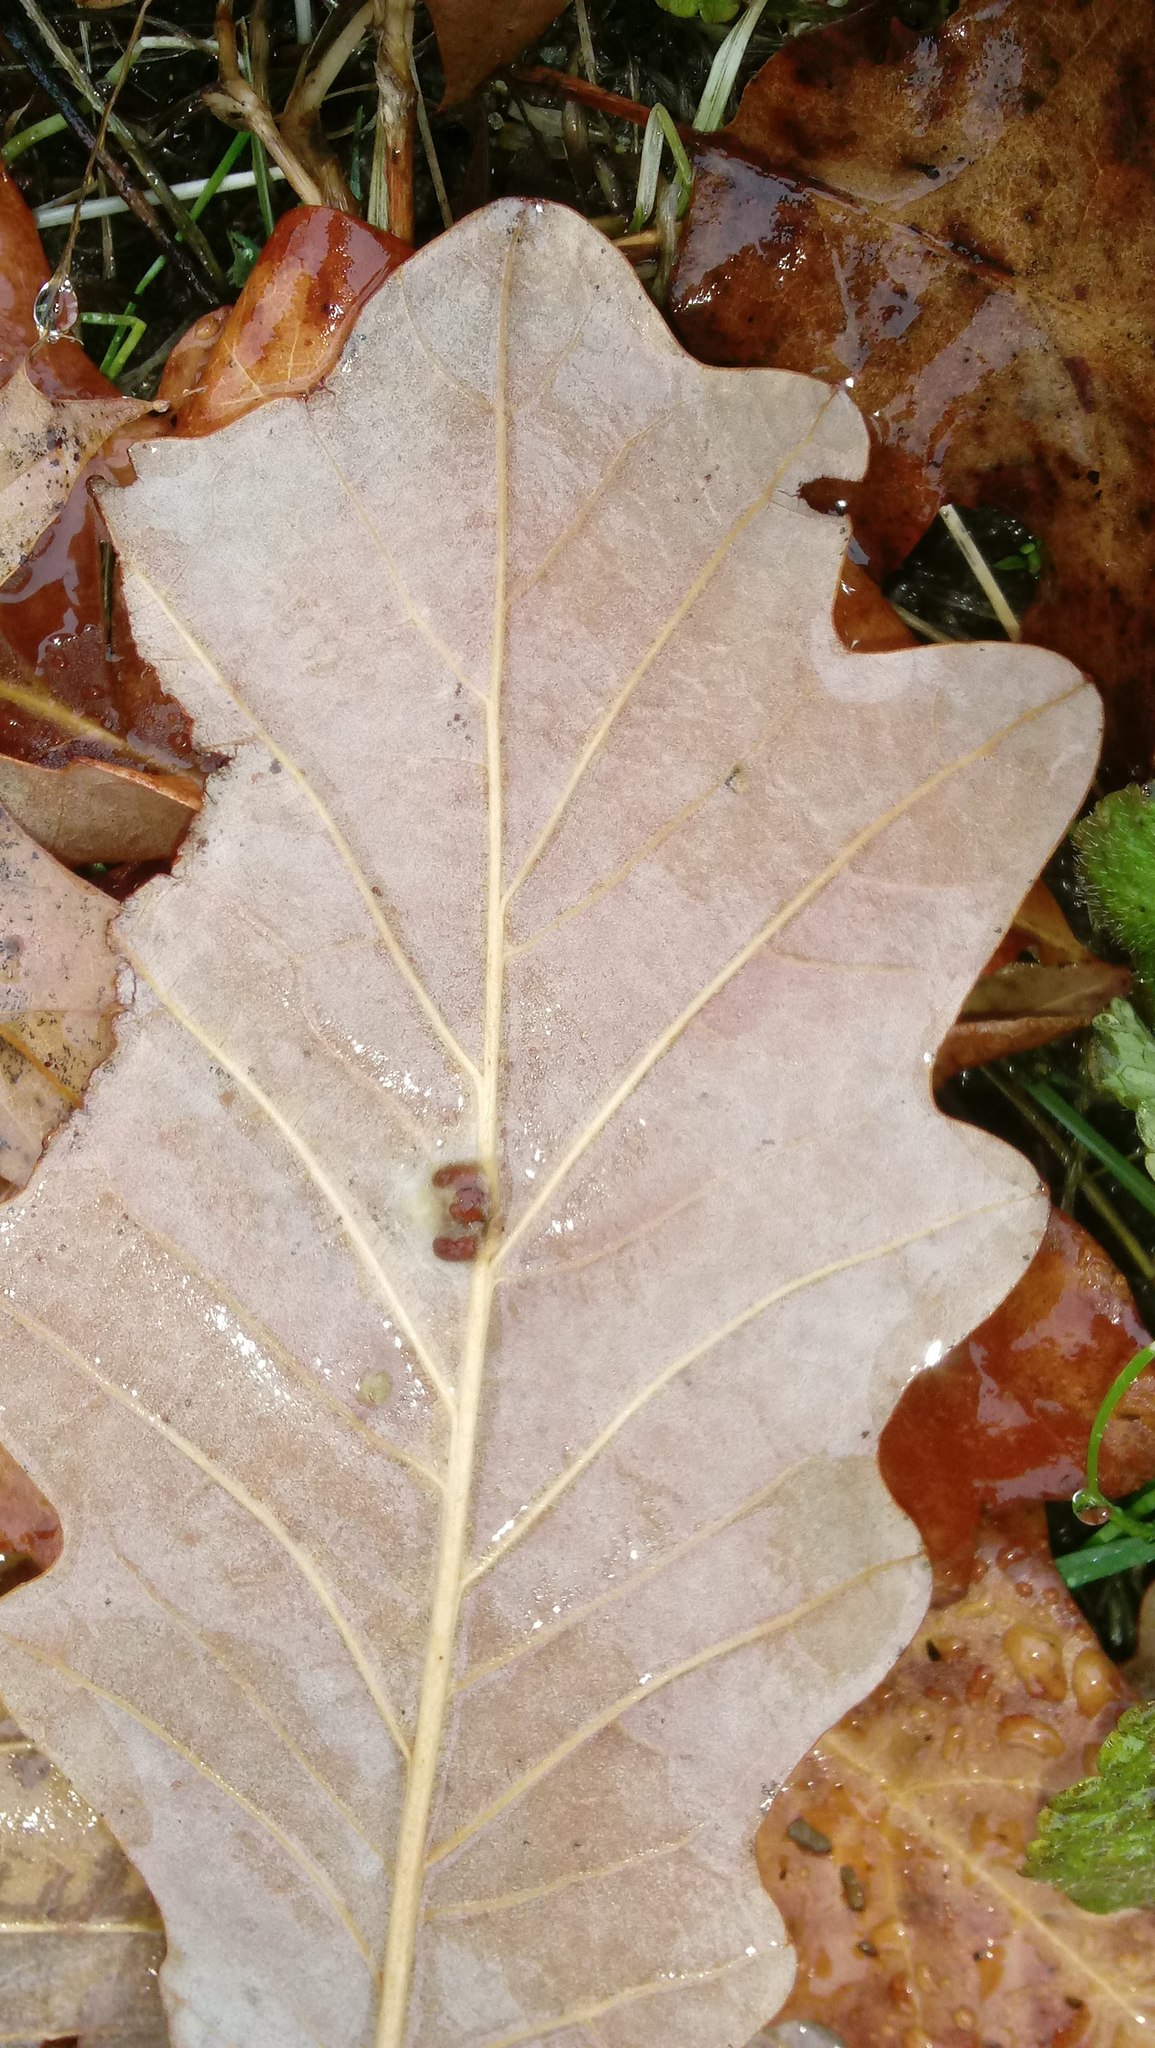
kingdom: Animalia
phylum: Arthropoda
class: Insecta
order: Hymenoptera
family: Cynipidae
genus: Andricus
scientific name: Andricus Druon ignotum
